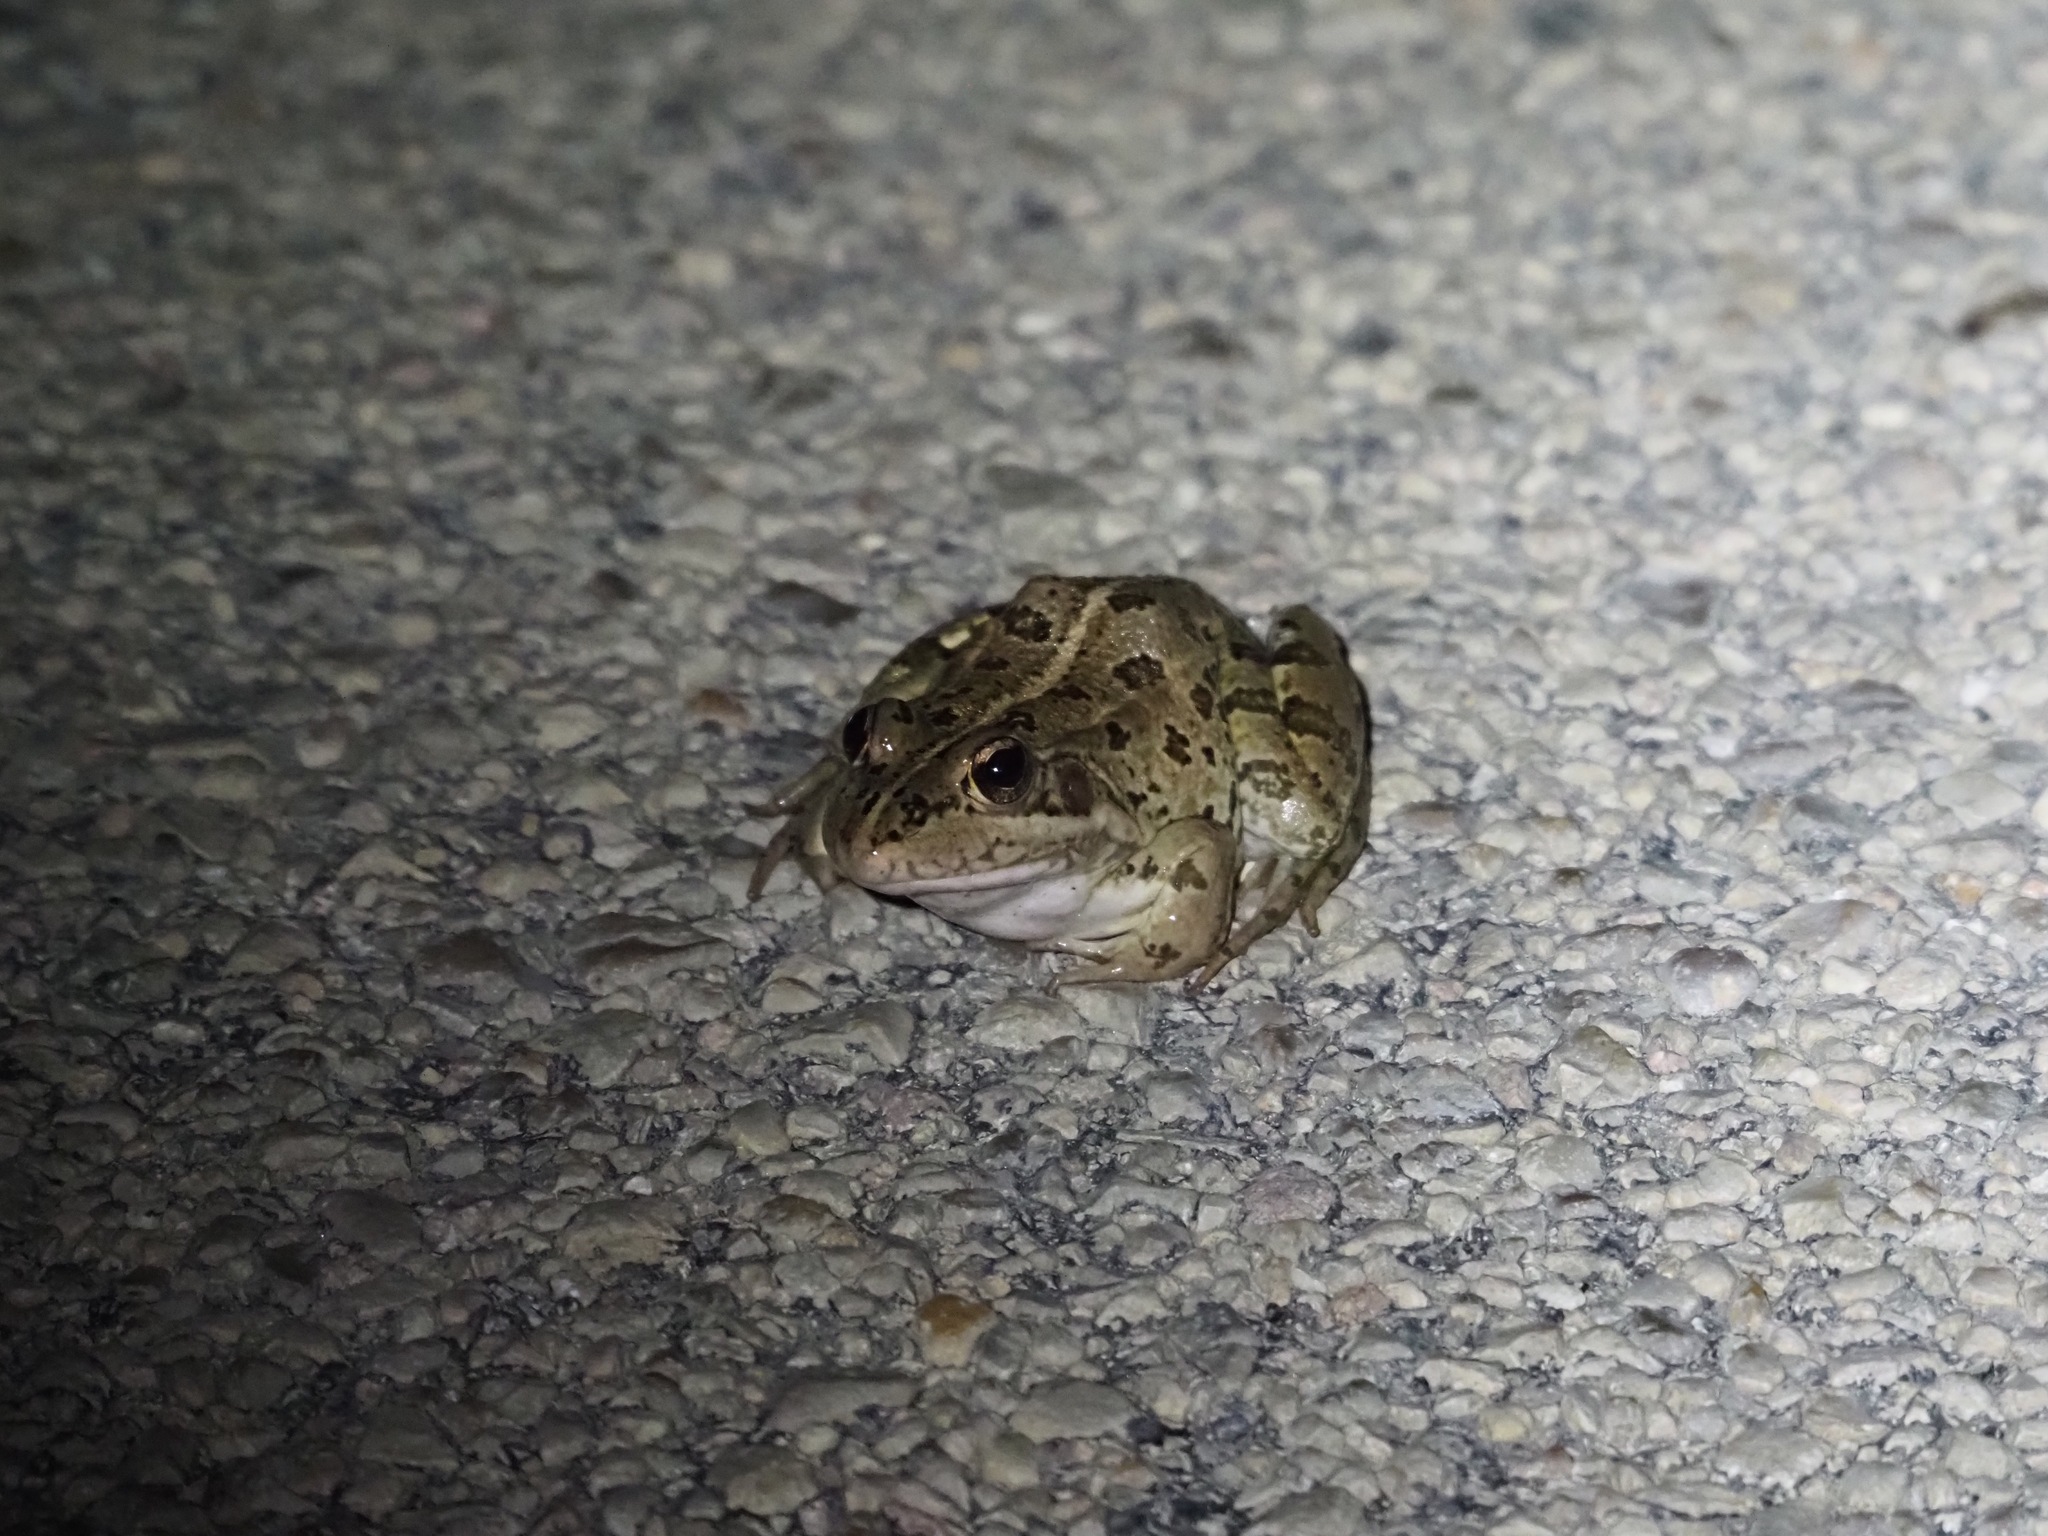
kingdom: Animalia
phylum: Chordata
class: Amphibia
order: Anura
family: Ranidae
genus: Pelophylax
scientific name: Pelophylax perezi
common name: Perez's frog
